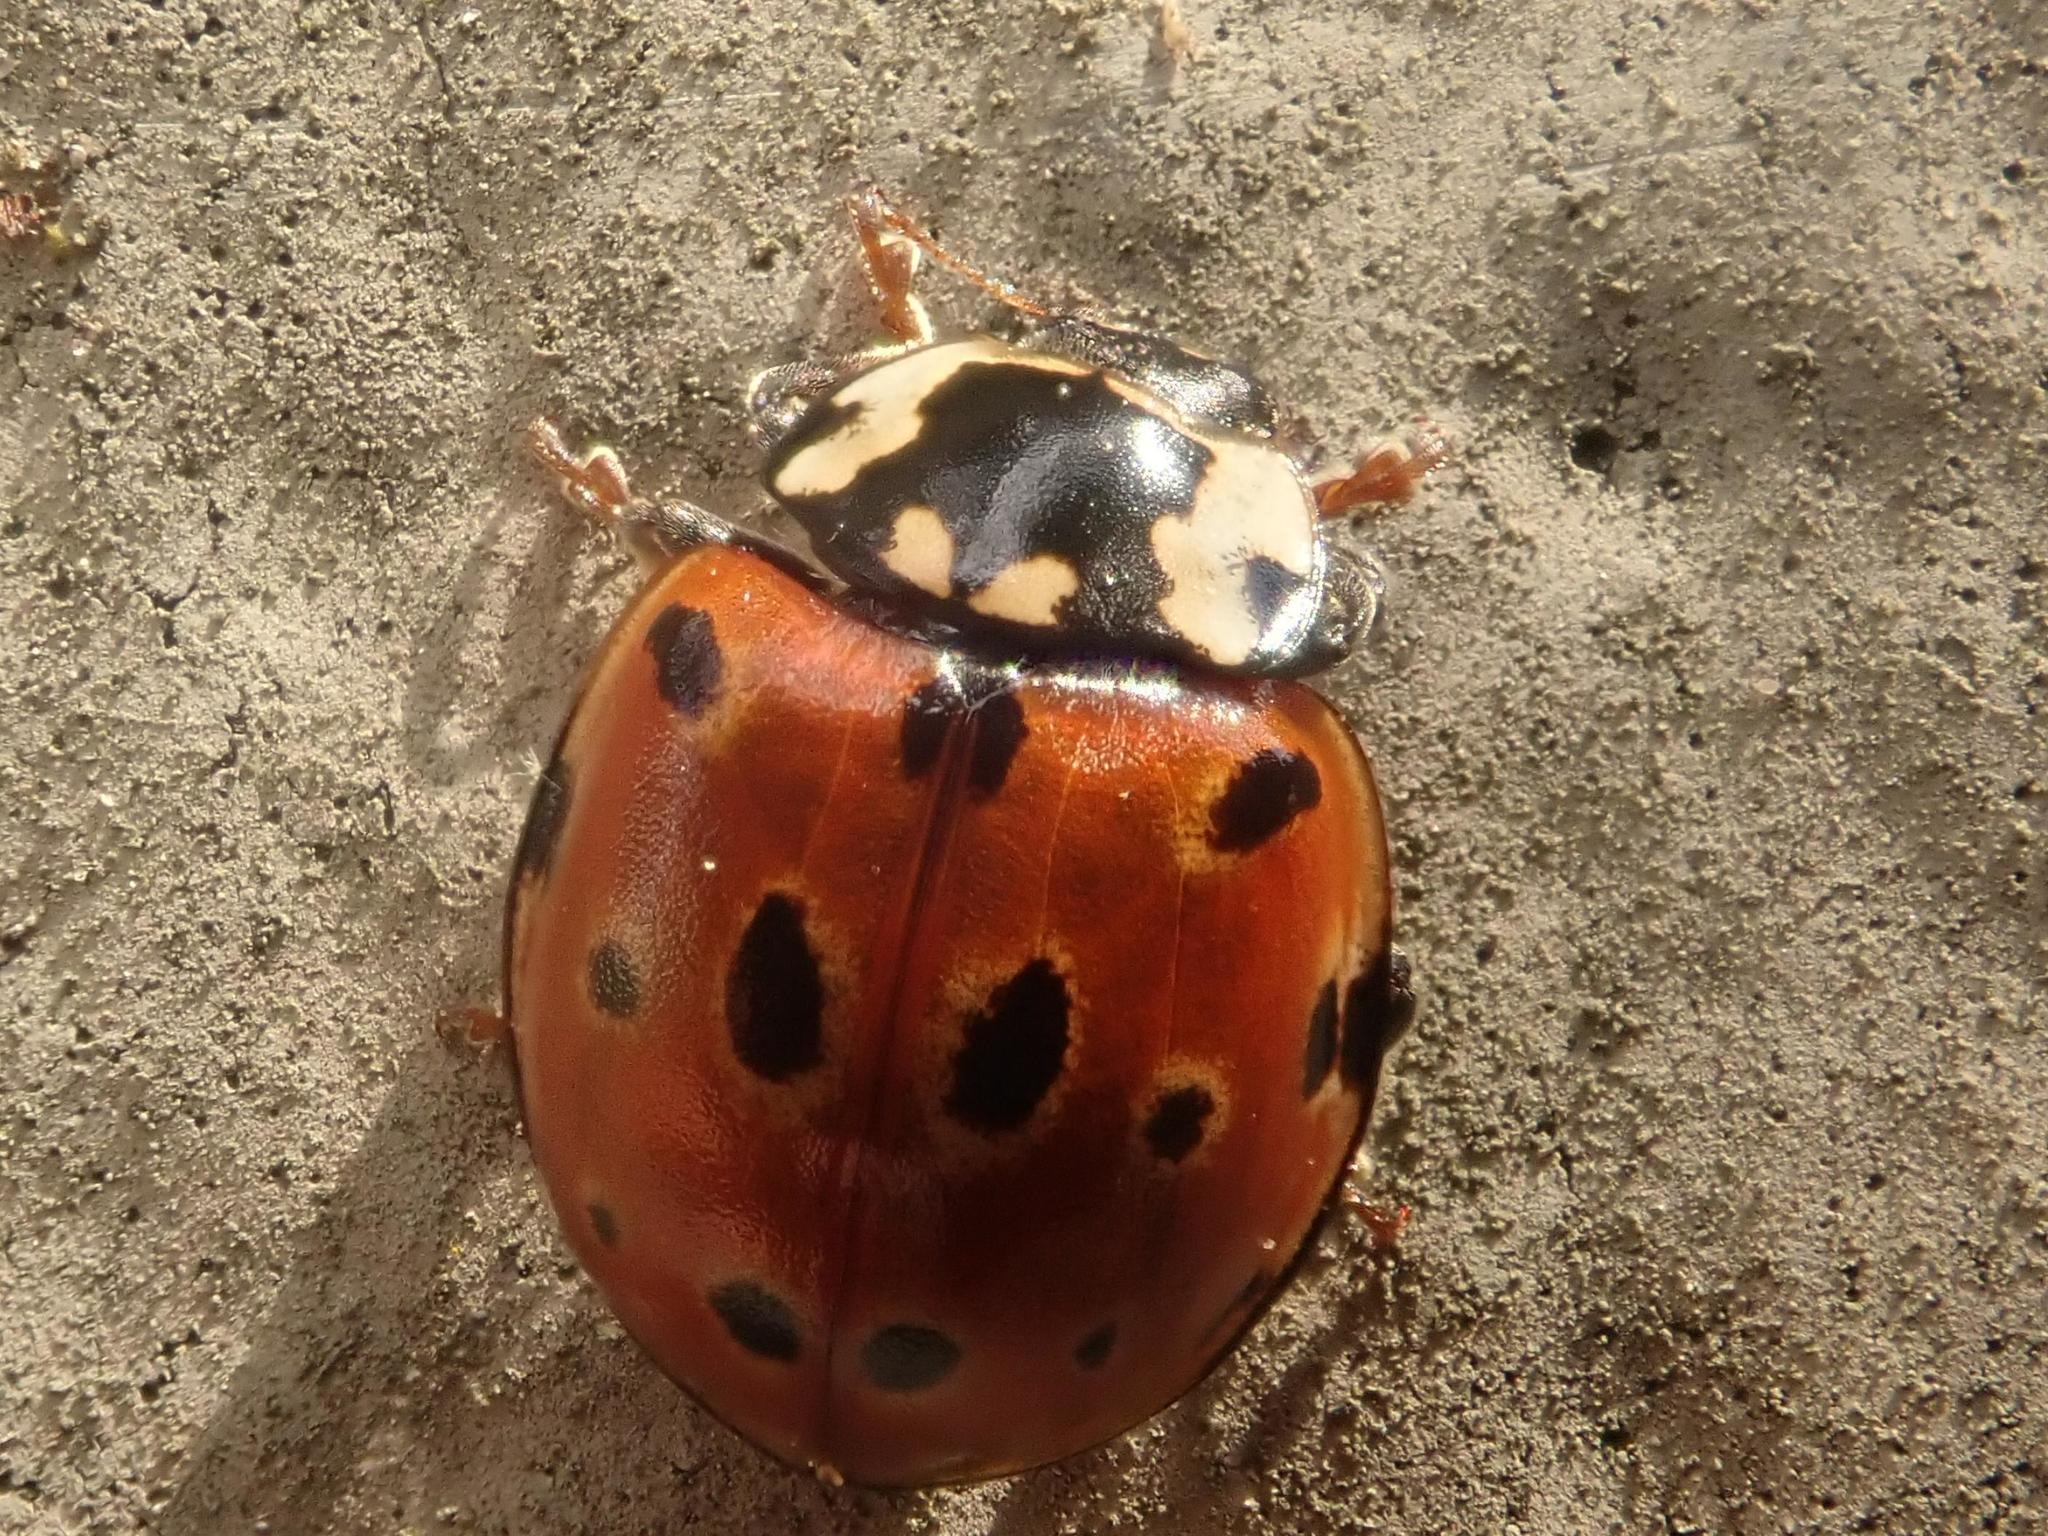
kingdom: Animalia
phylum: Arthropoda
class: Insecta
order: Coleoptera
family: Coccinellidae
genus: Anatis
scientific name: Anatis ocellata
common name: Eyed ladybird
